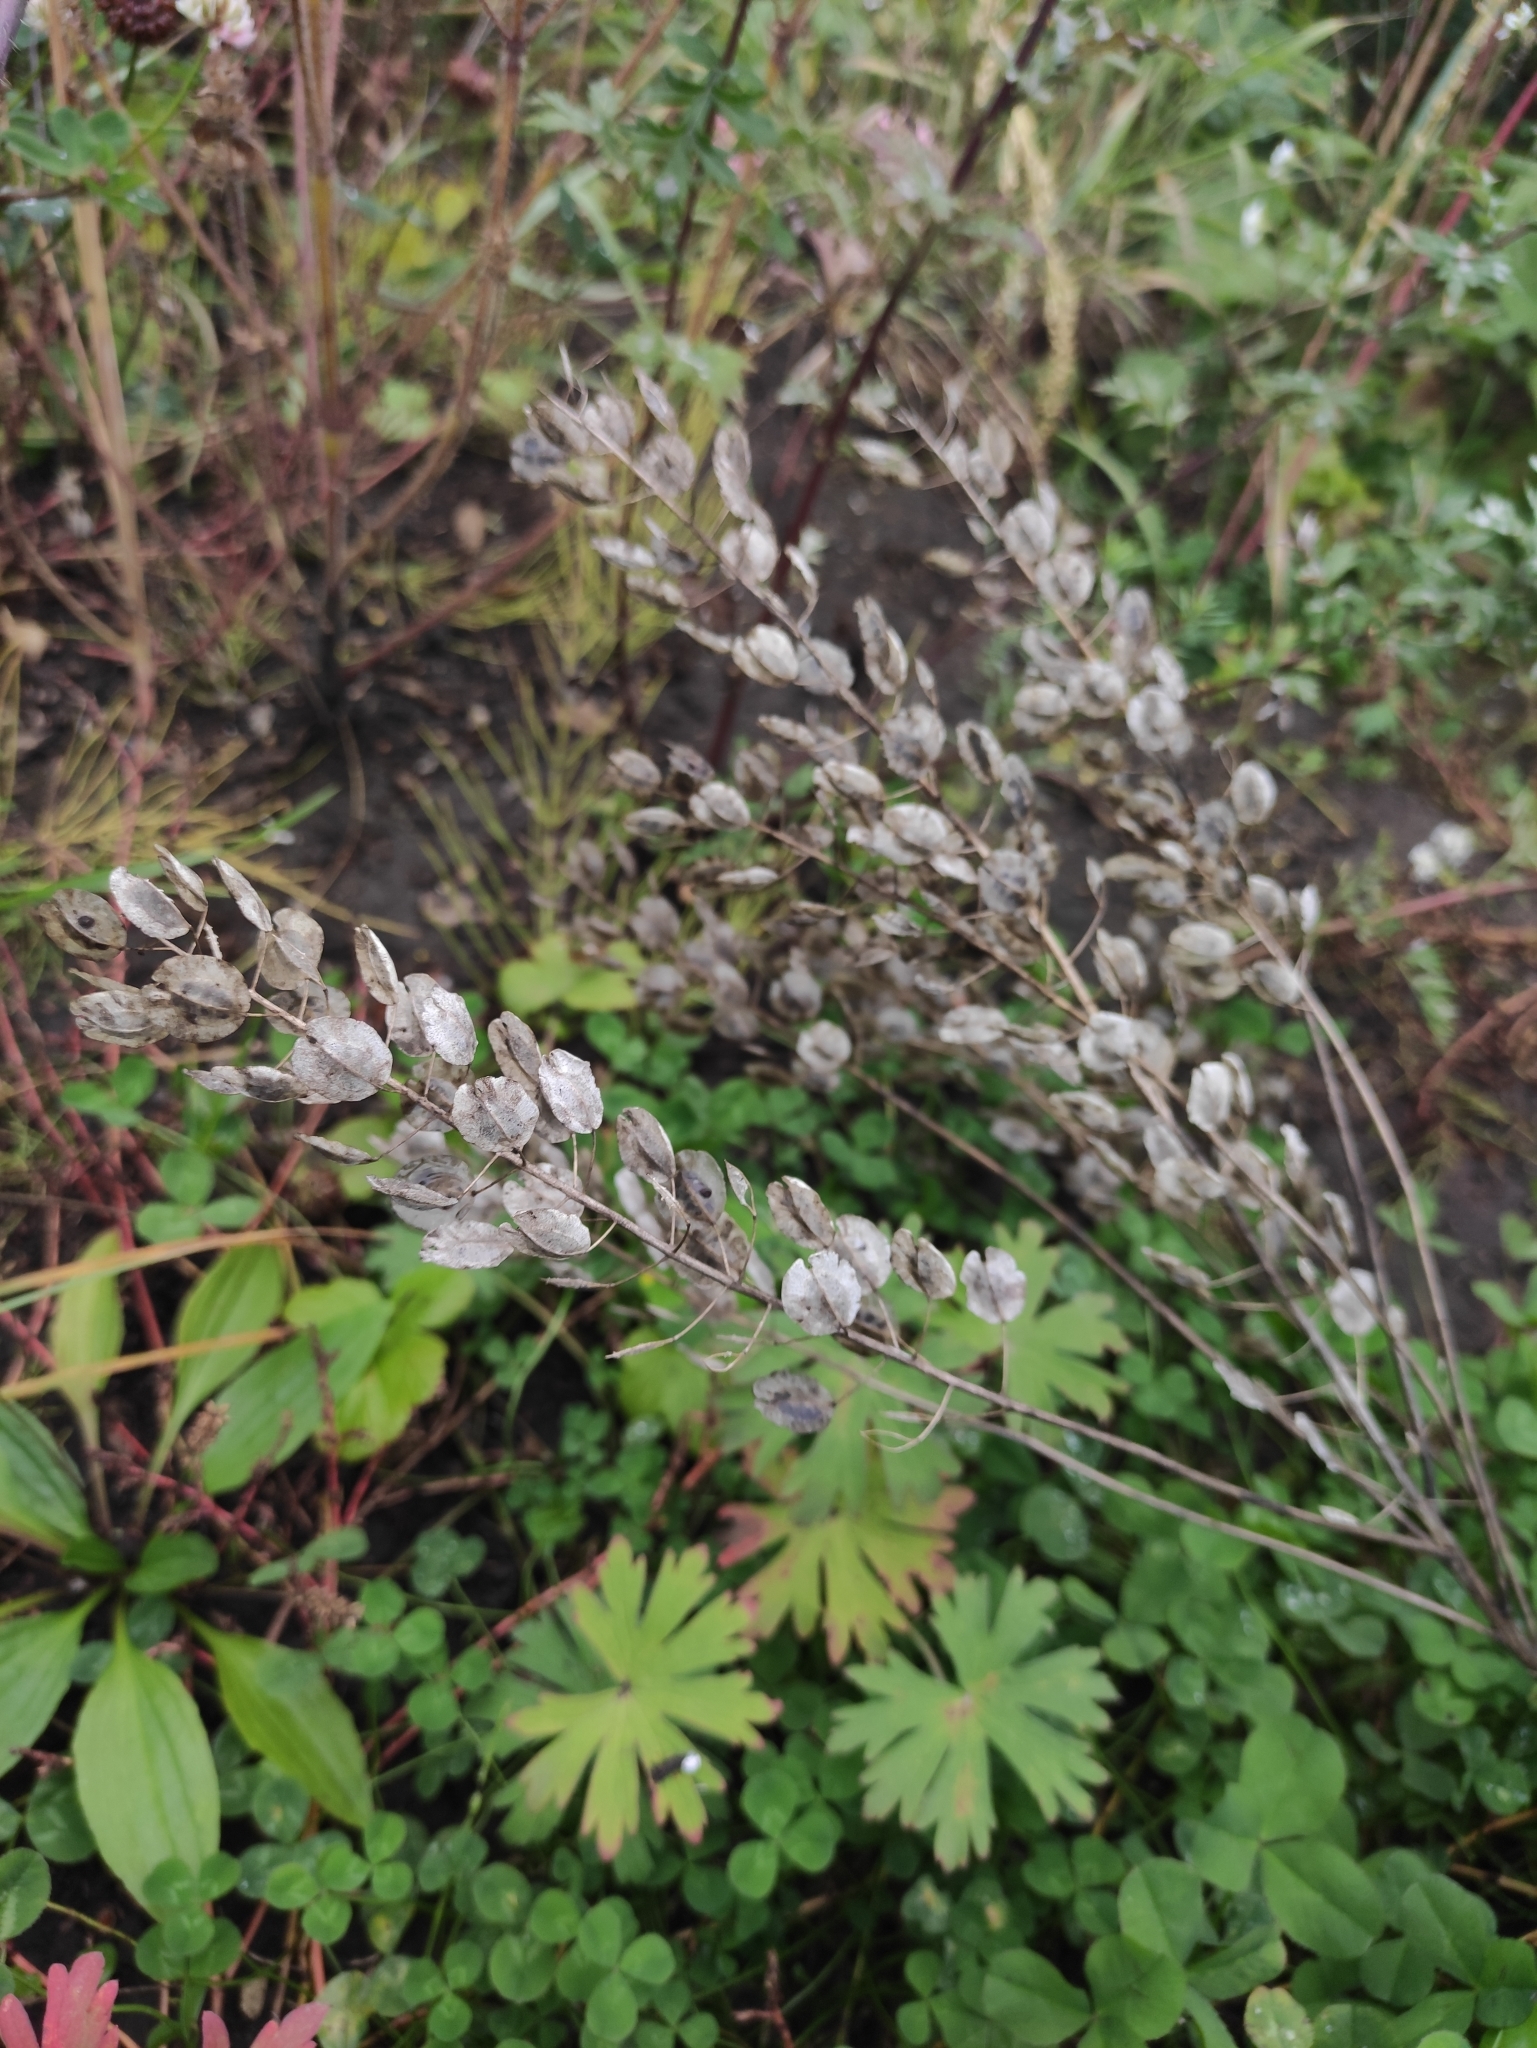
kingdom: Plantae
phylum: Tracheophyta
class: Magnoliopsida
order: Brassicales
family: Brassicaceae
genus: Thlaspi
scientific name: Thlaspi arvense
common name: Field pennycress
